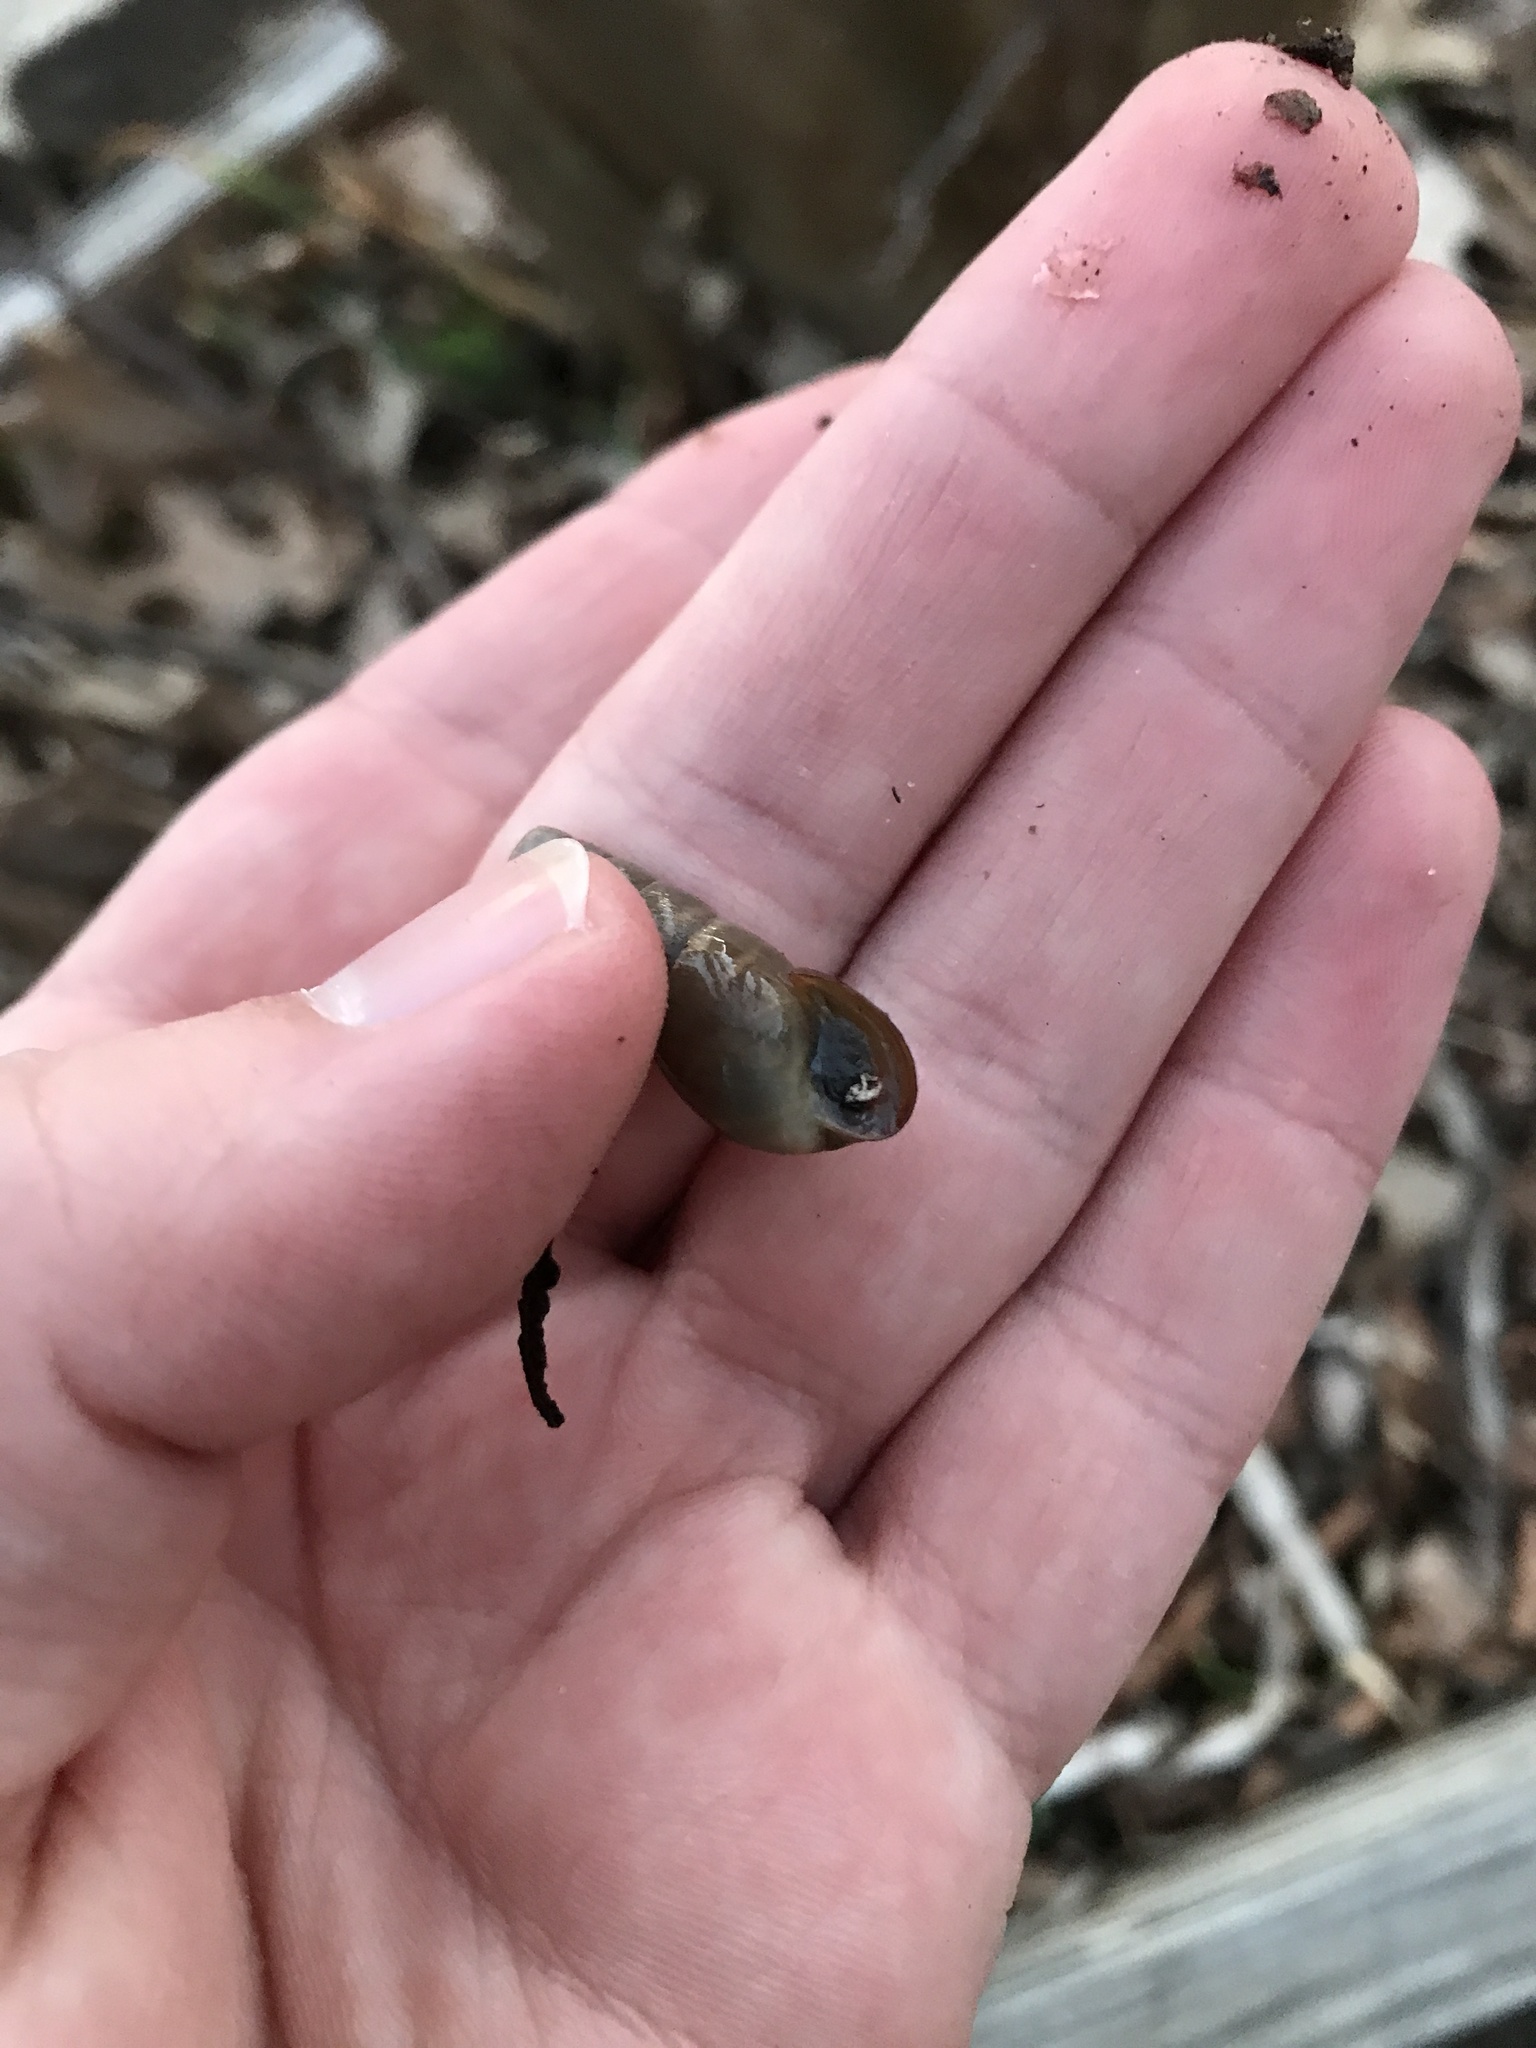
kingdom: Animalia
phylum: Mollusca
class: Gastropoda
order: Stylommatophora
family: Achatinidae
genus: Rumina
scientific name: Rumina decollata
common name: Decollate snail
